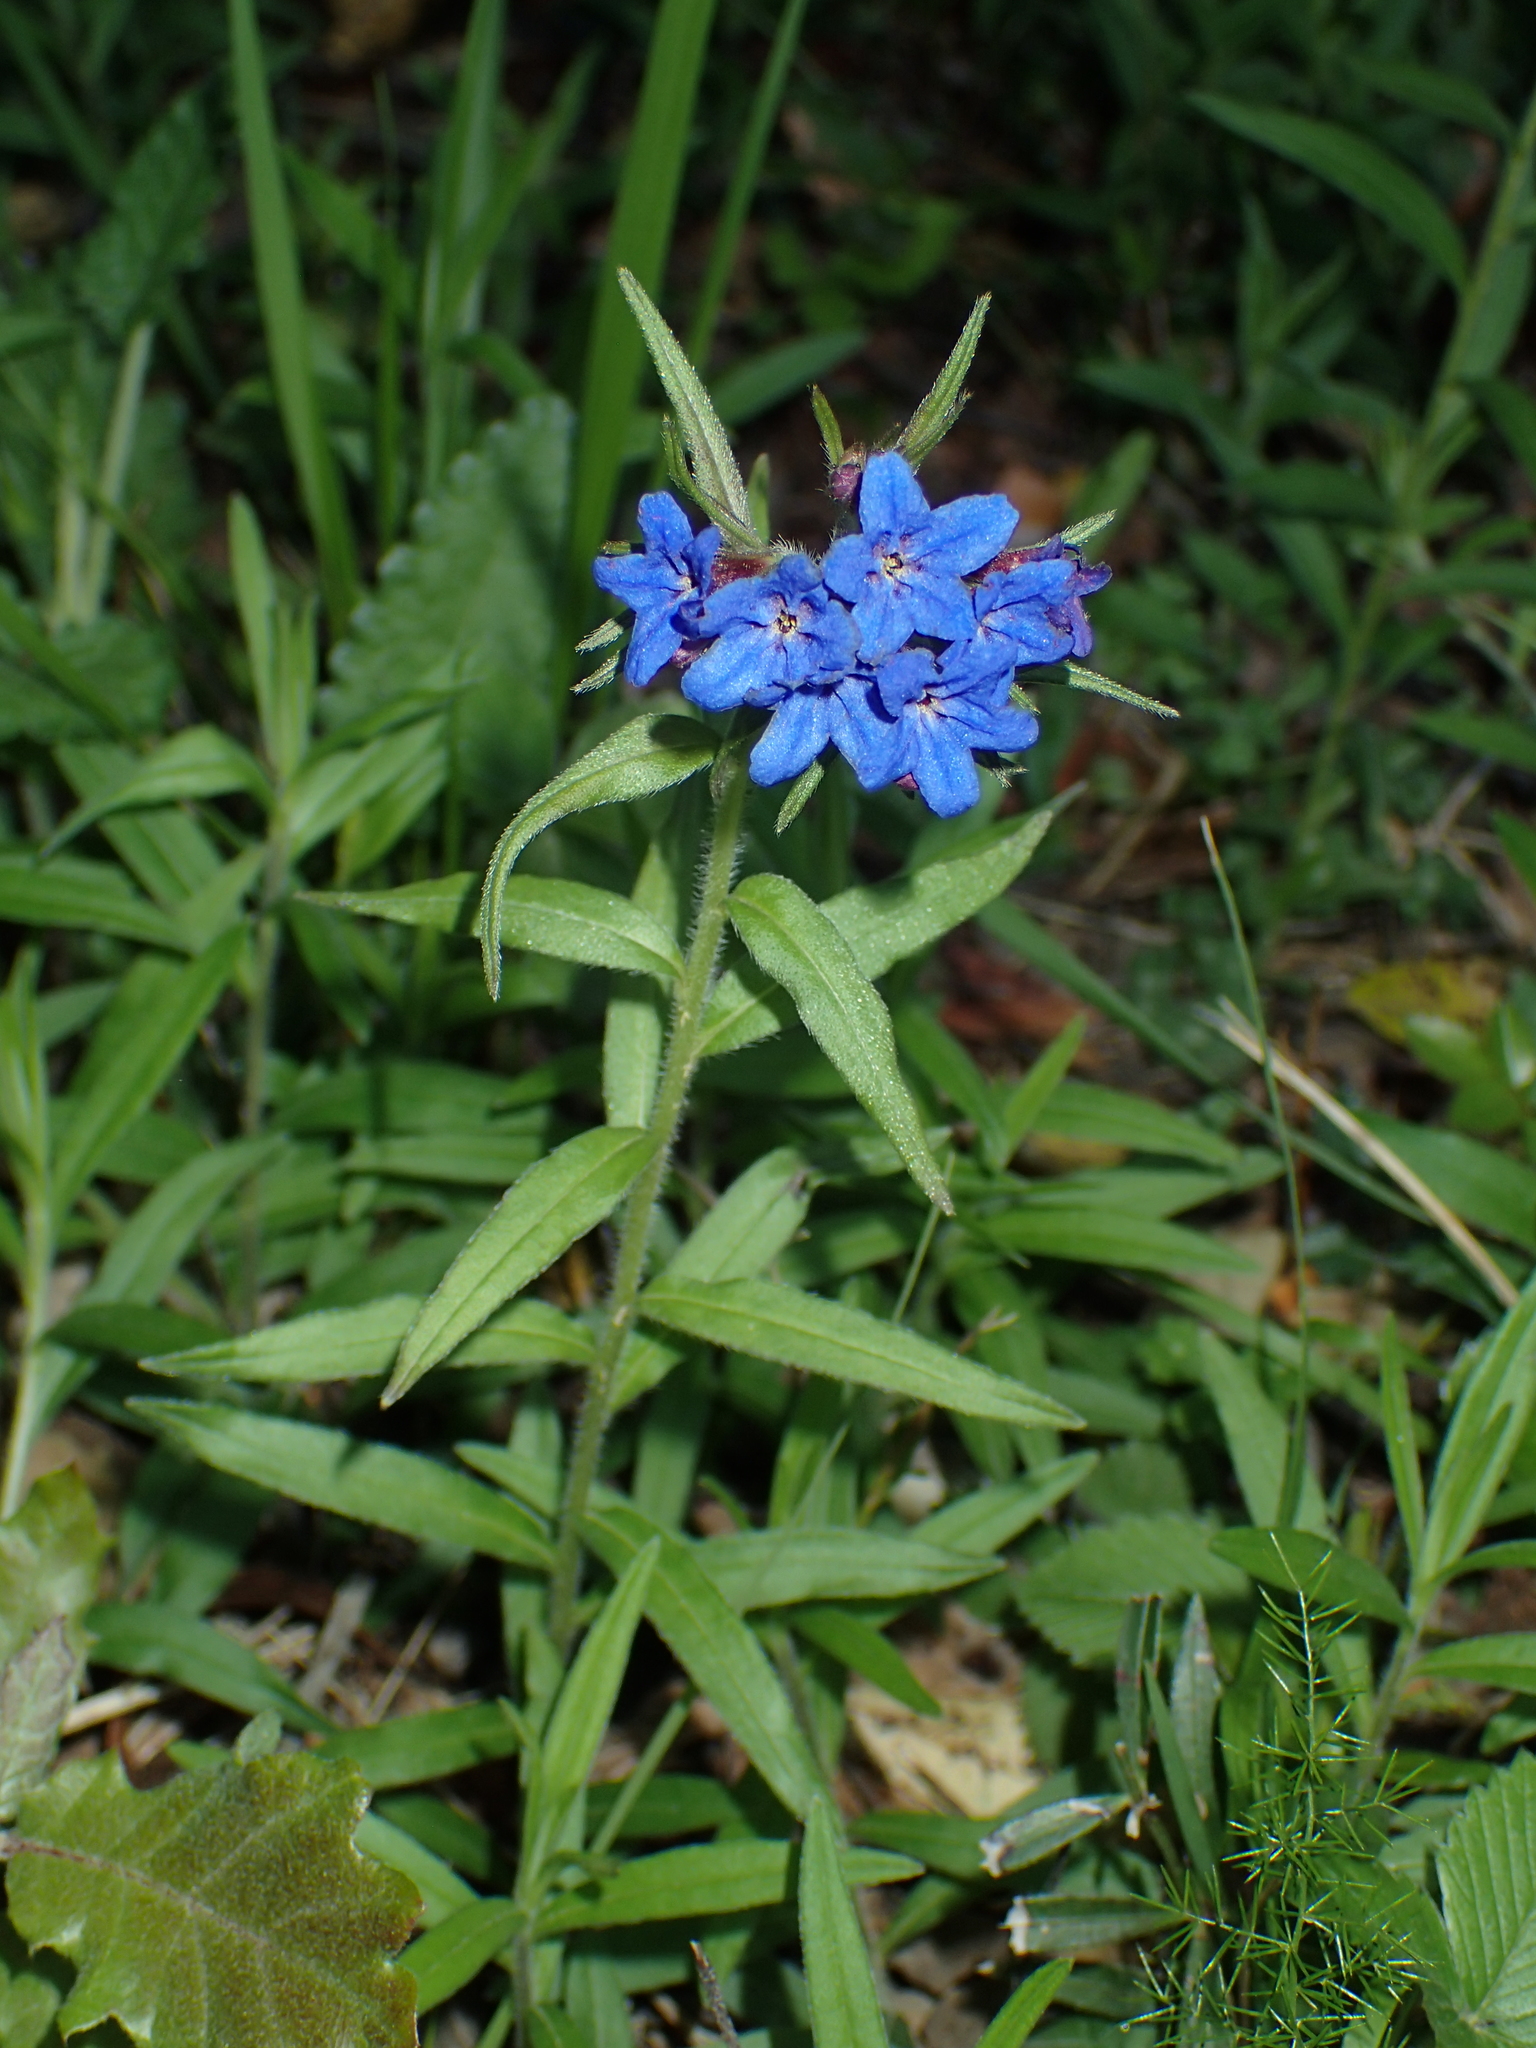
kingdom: Plantae
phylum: Tracheophyta
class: Magnoliopsida
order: Boraginales
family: Boraginaceae
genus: Aegonychon
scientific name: Aegonychon purpurocaeruleum
